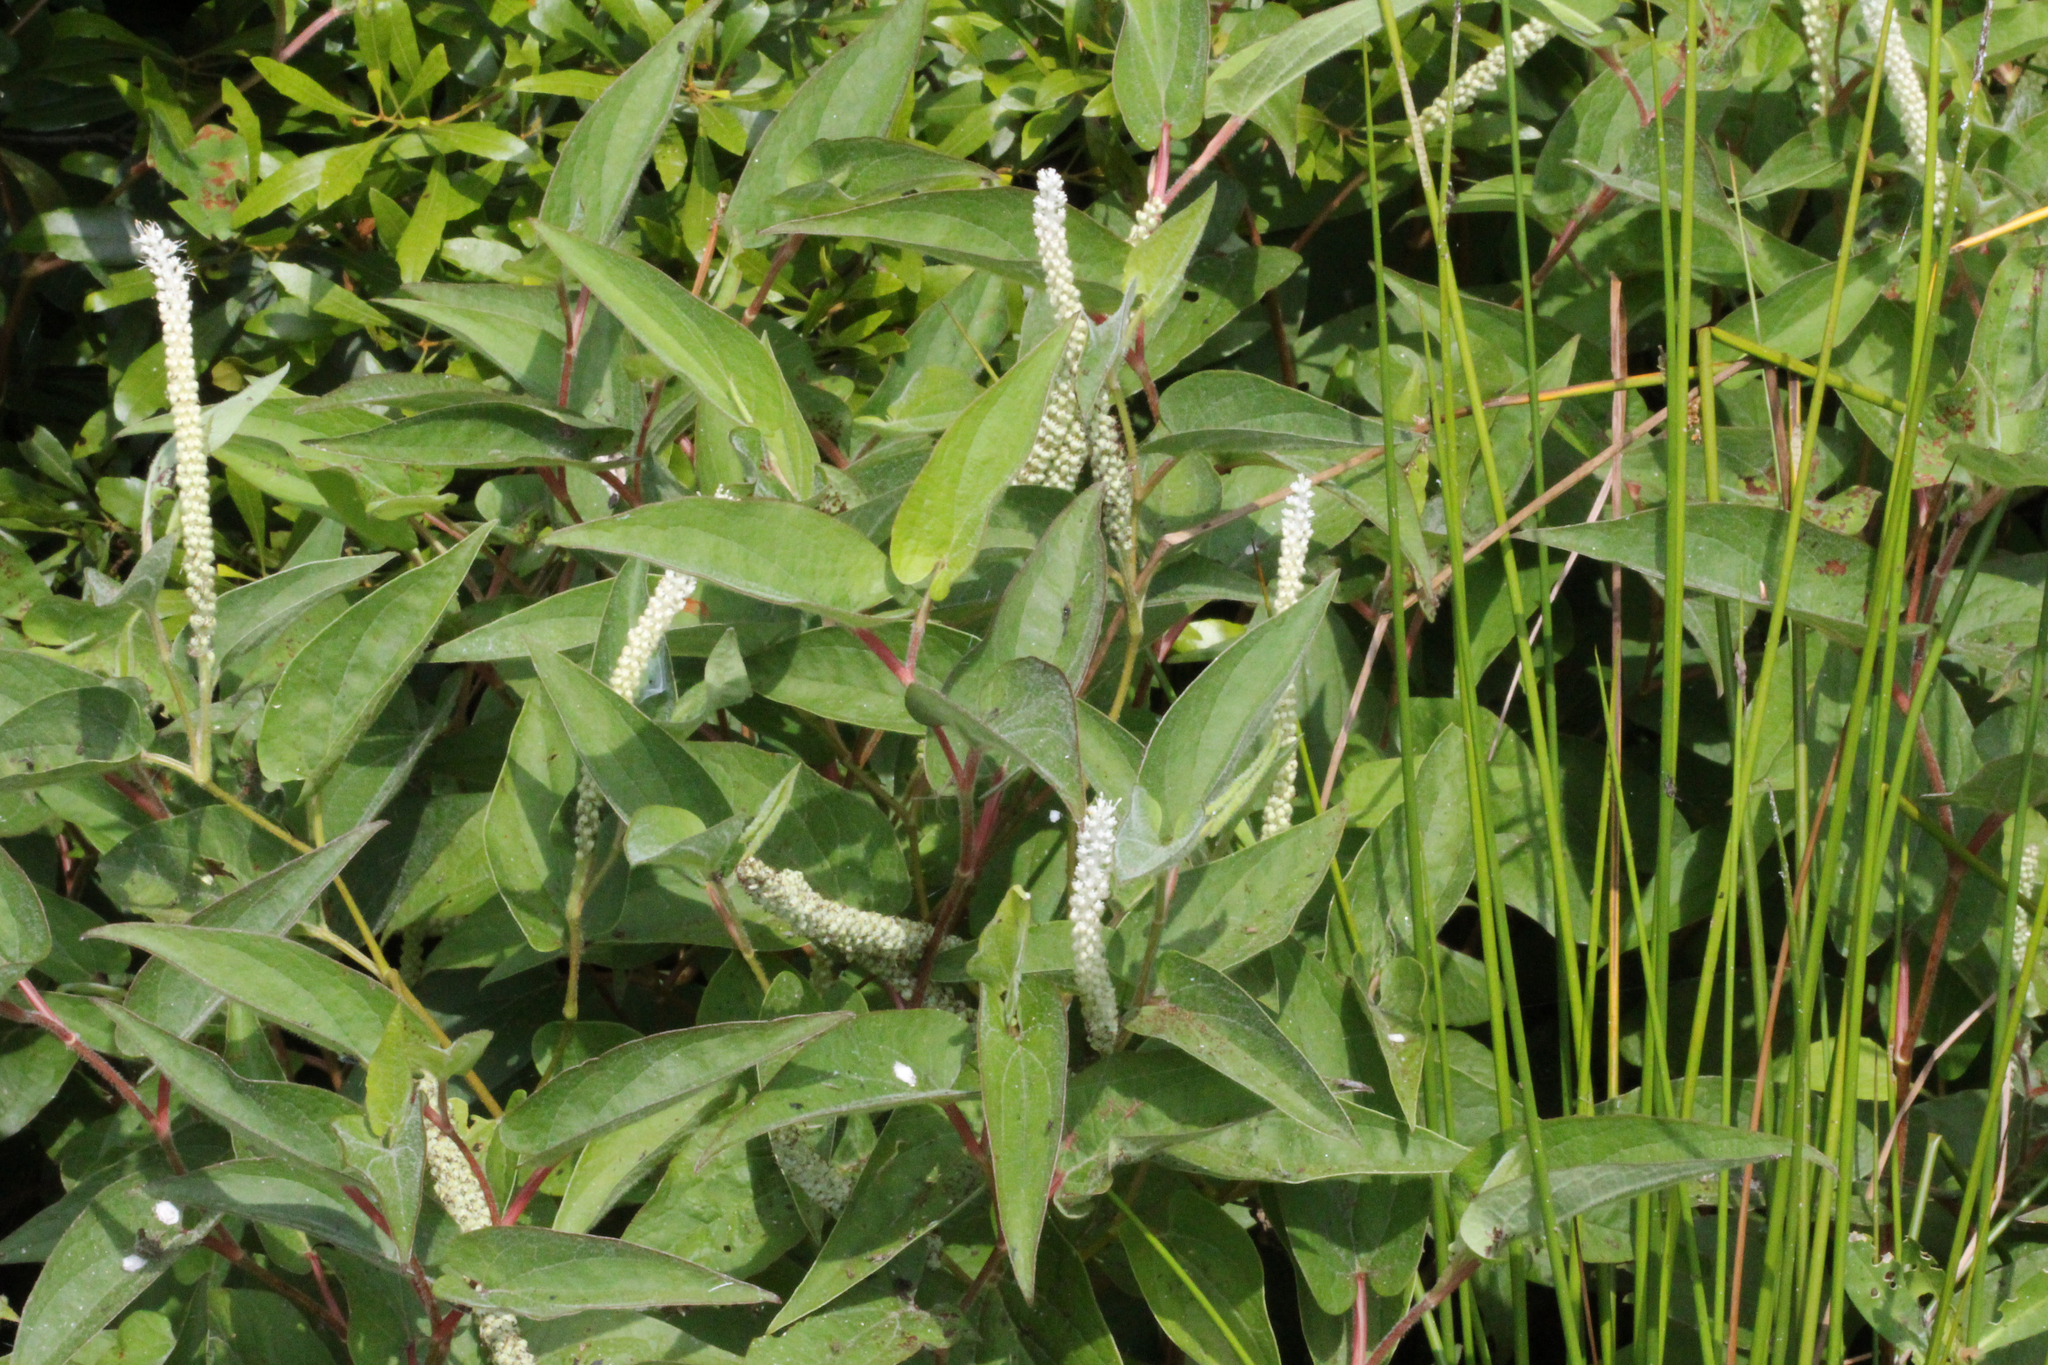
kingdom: Plantae
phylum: Tracheophyta
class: Magnoliopsida
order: Piperales
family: Saururaceae
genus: Saururus
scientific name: Saururus cernuus
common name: Lizard's-tail
